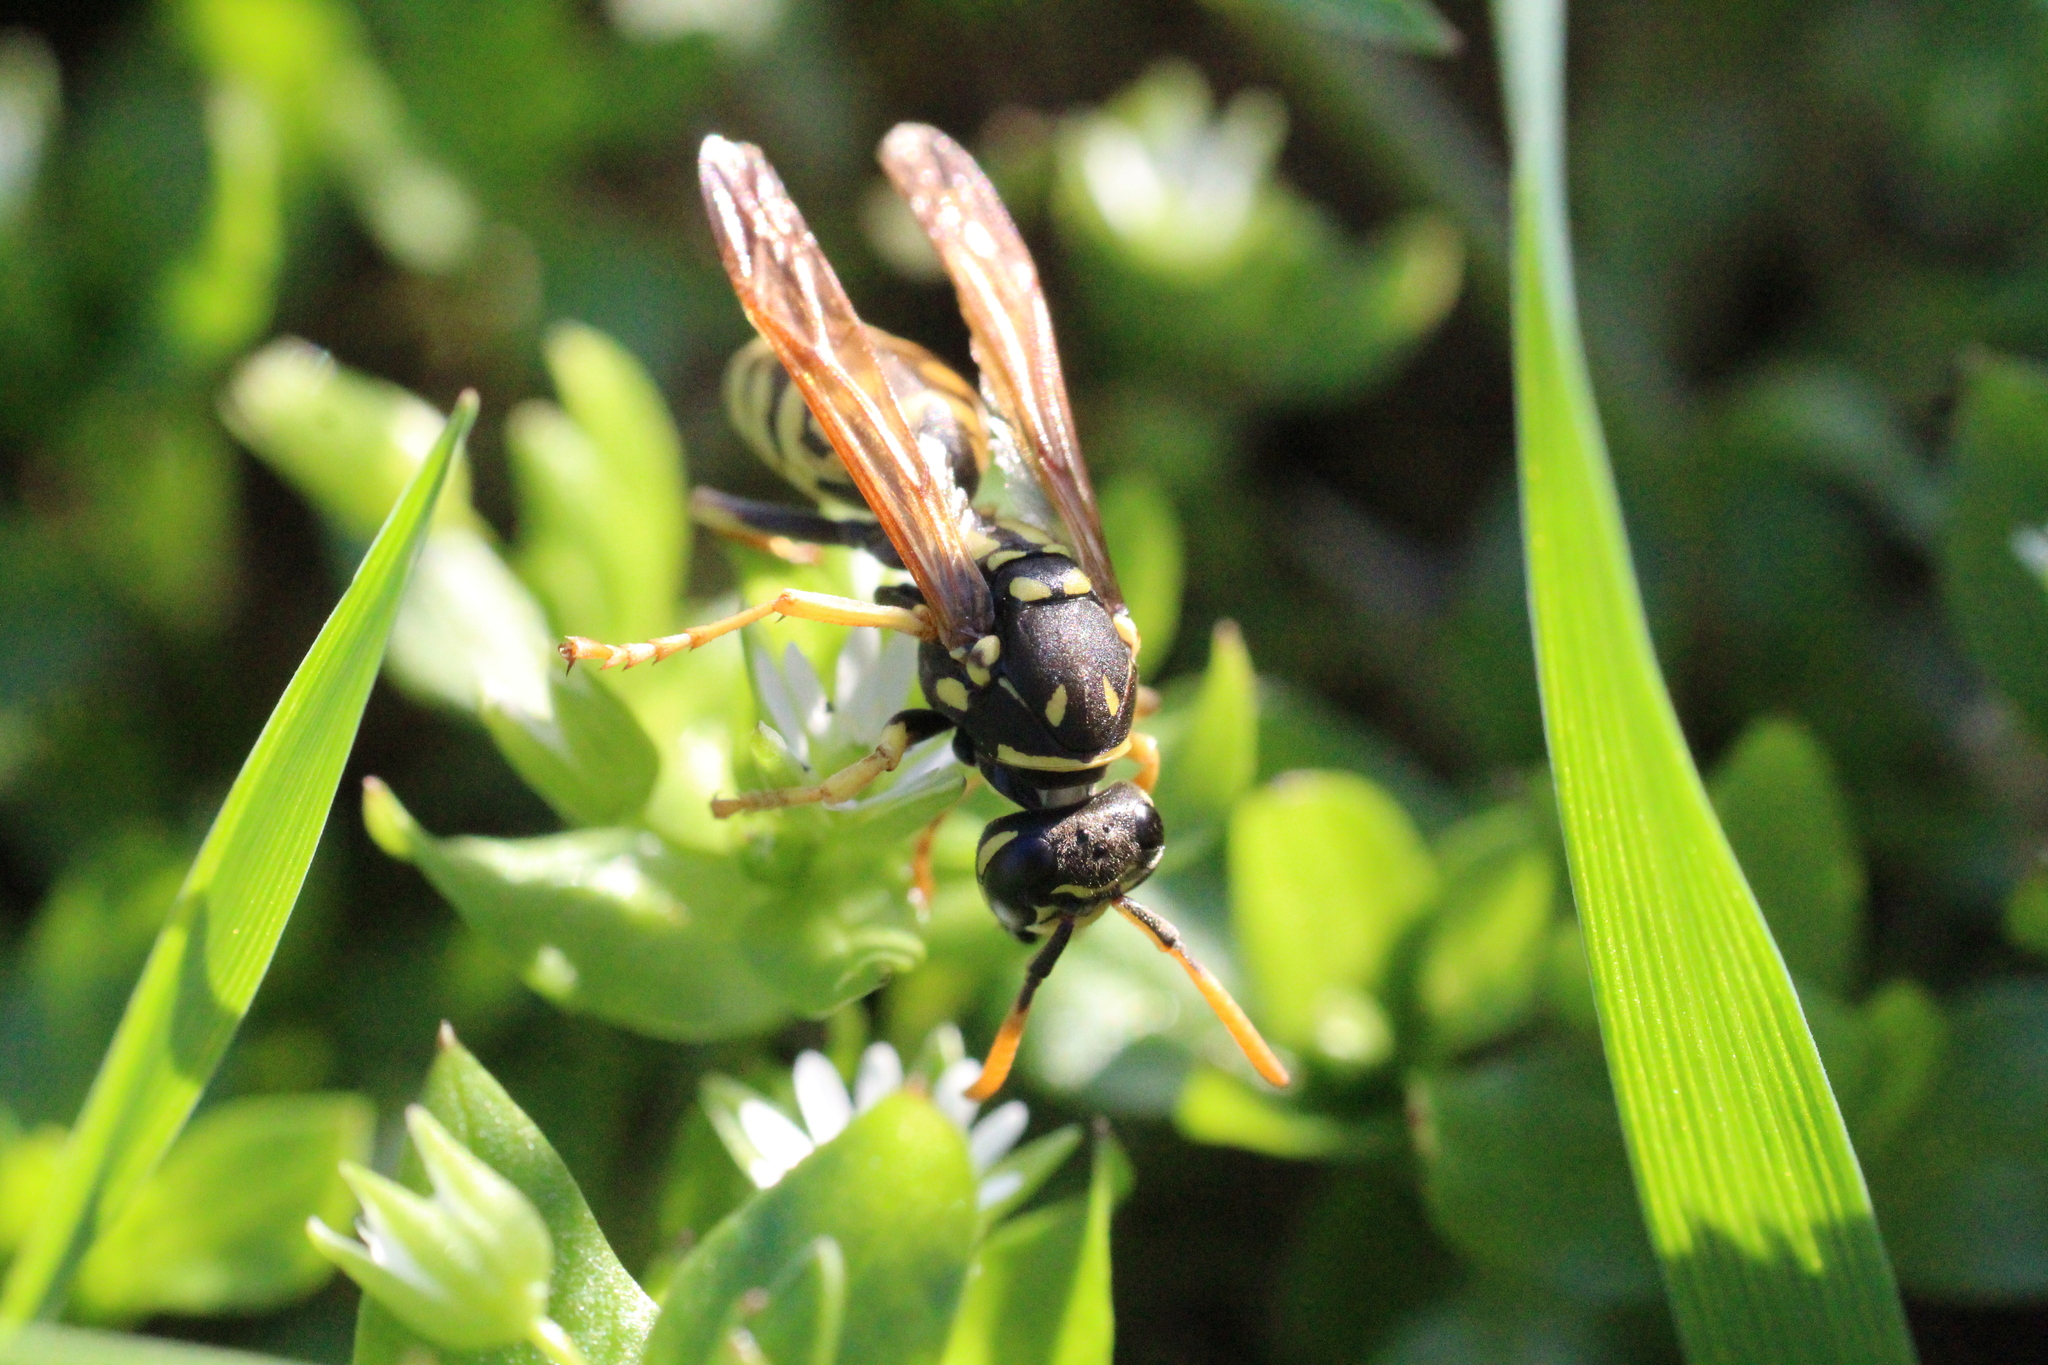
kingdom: Animalia
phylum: Arthropoda
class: Insecta
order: Hymenoptera
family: Eumenidae
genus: Polistes
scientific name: Polistes dominula
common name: Paper wasp
